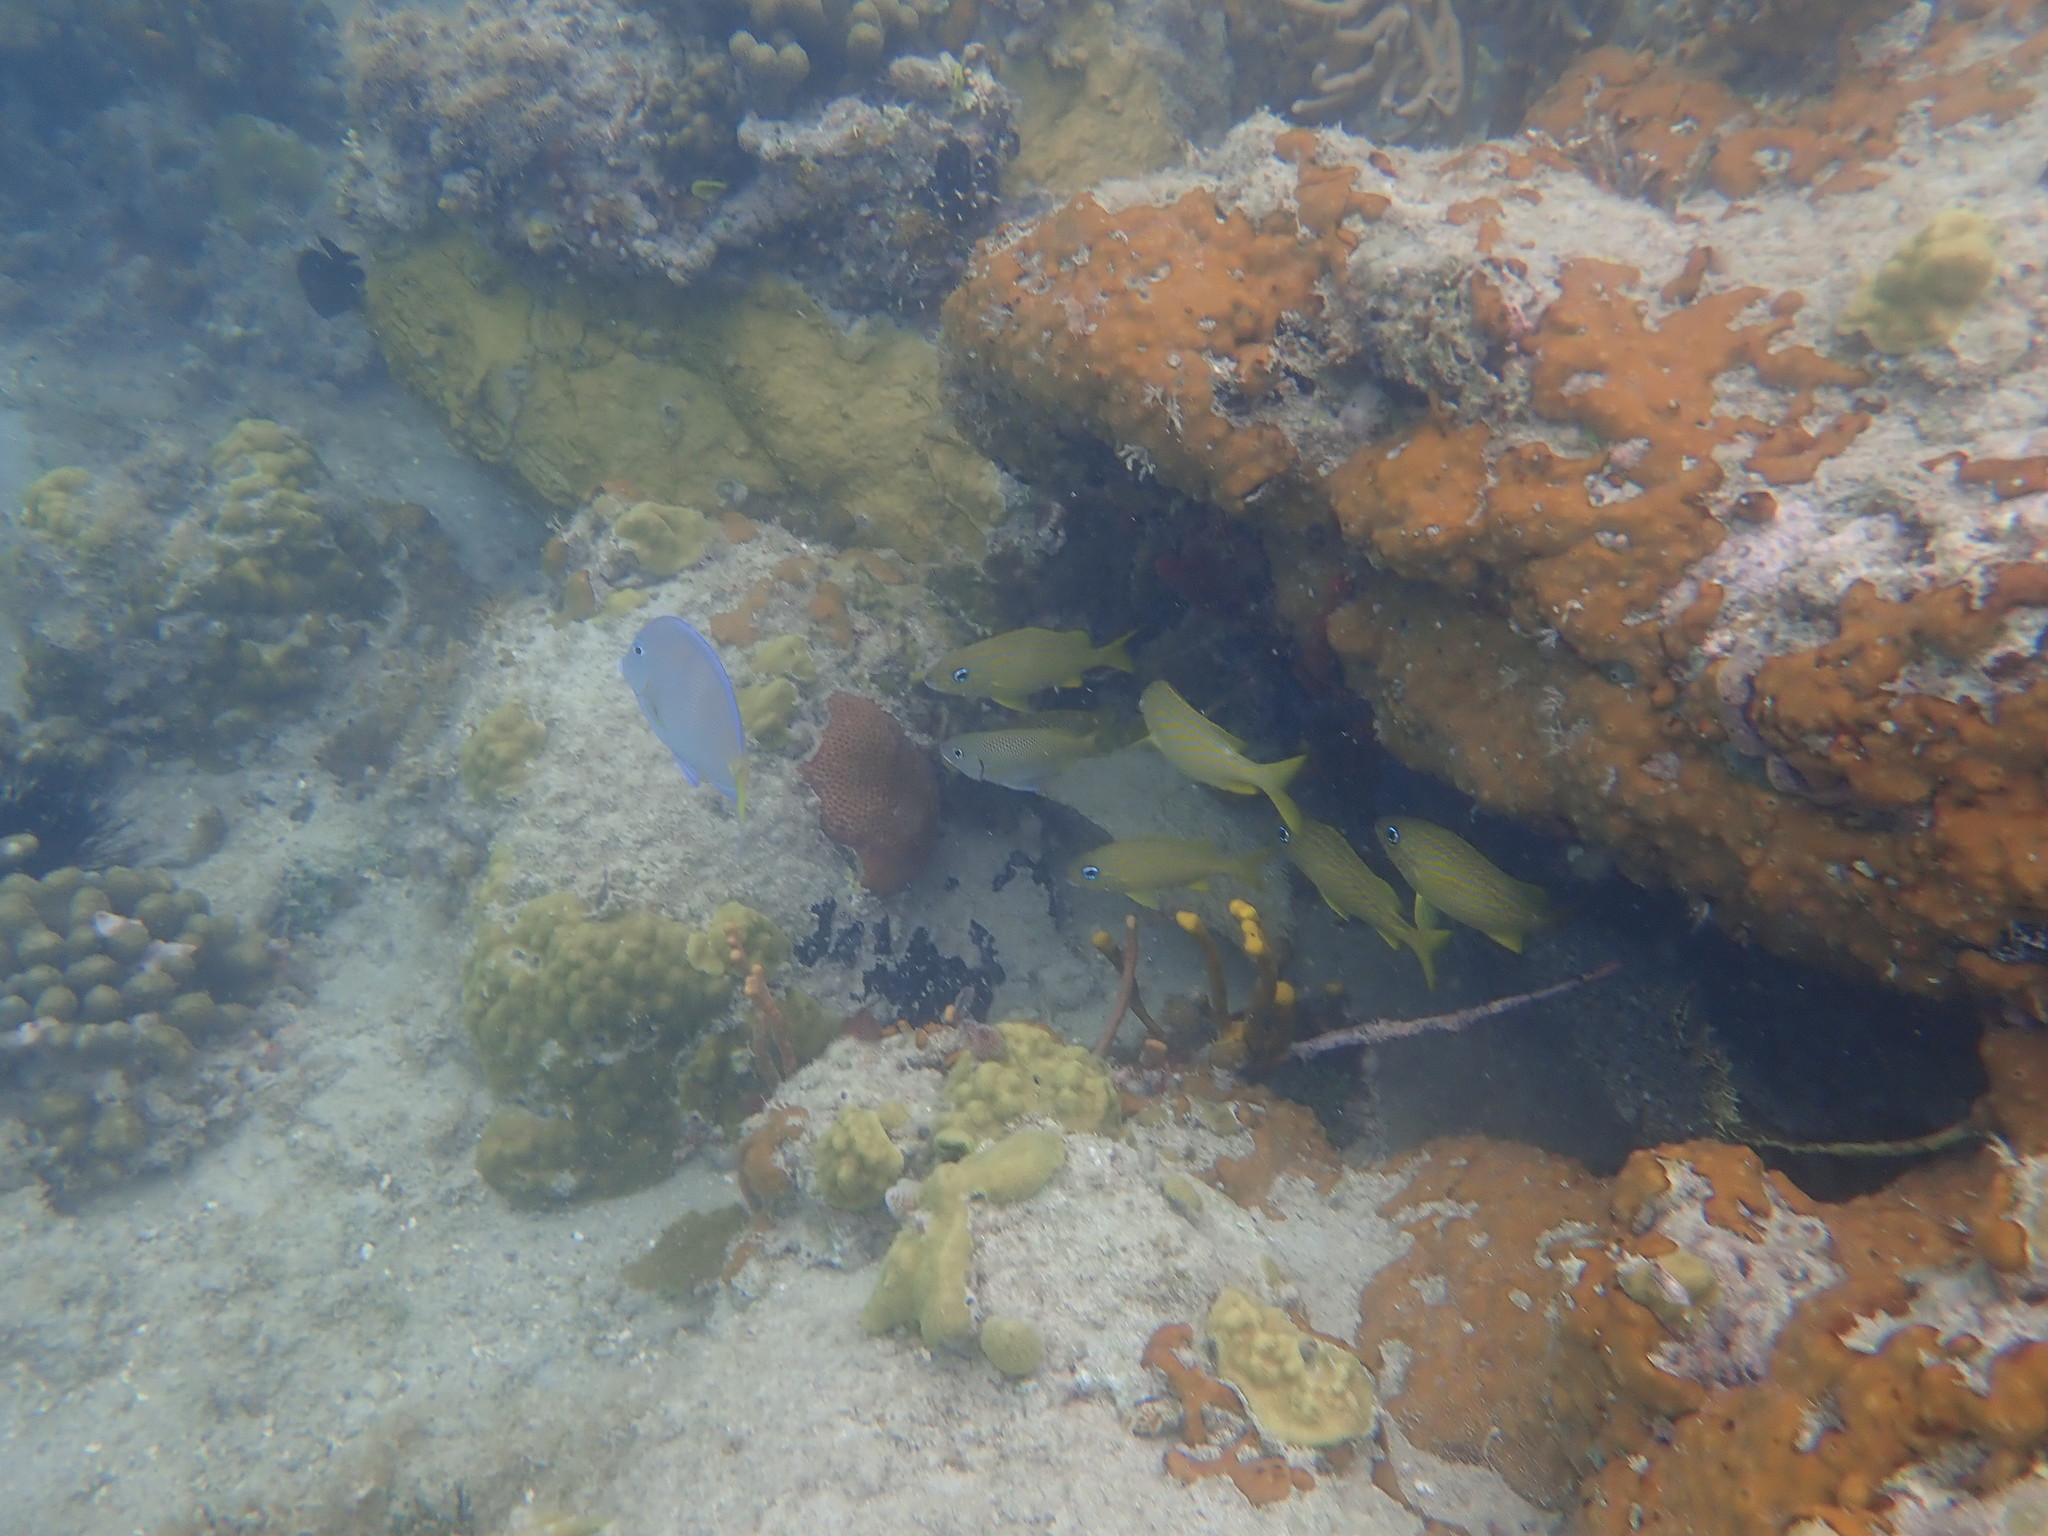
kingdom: Animalia
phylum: Chordata
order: Perciformes
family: Acanthuridae
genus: Acanthurus
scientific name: Acanthurus coeruleus
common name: Blue tang
